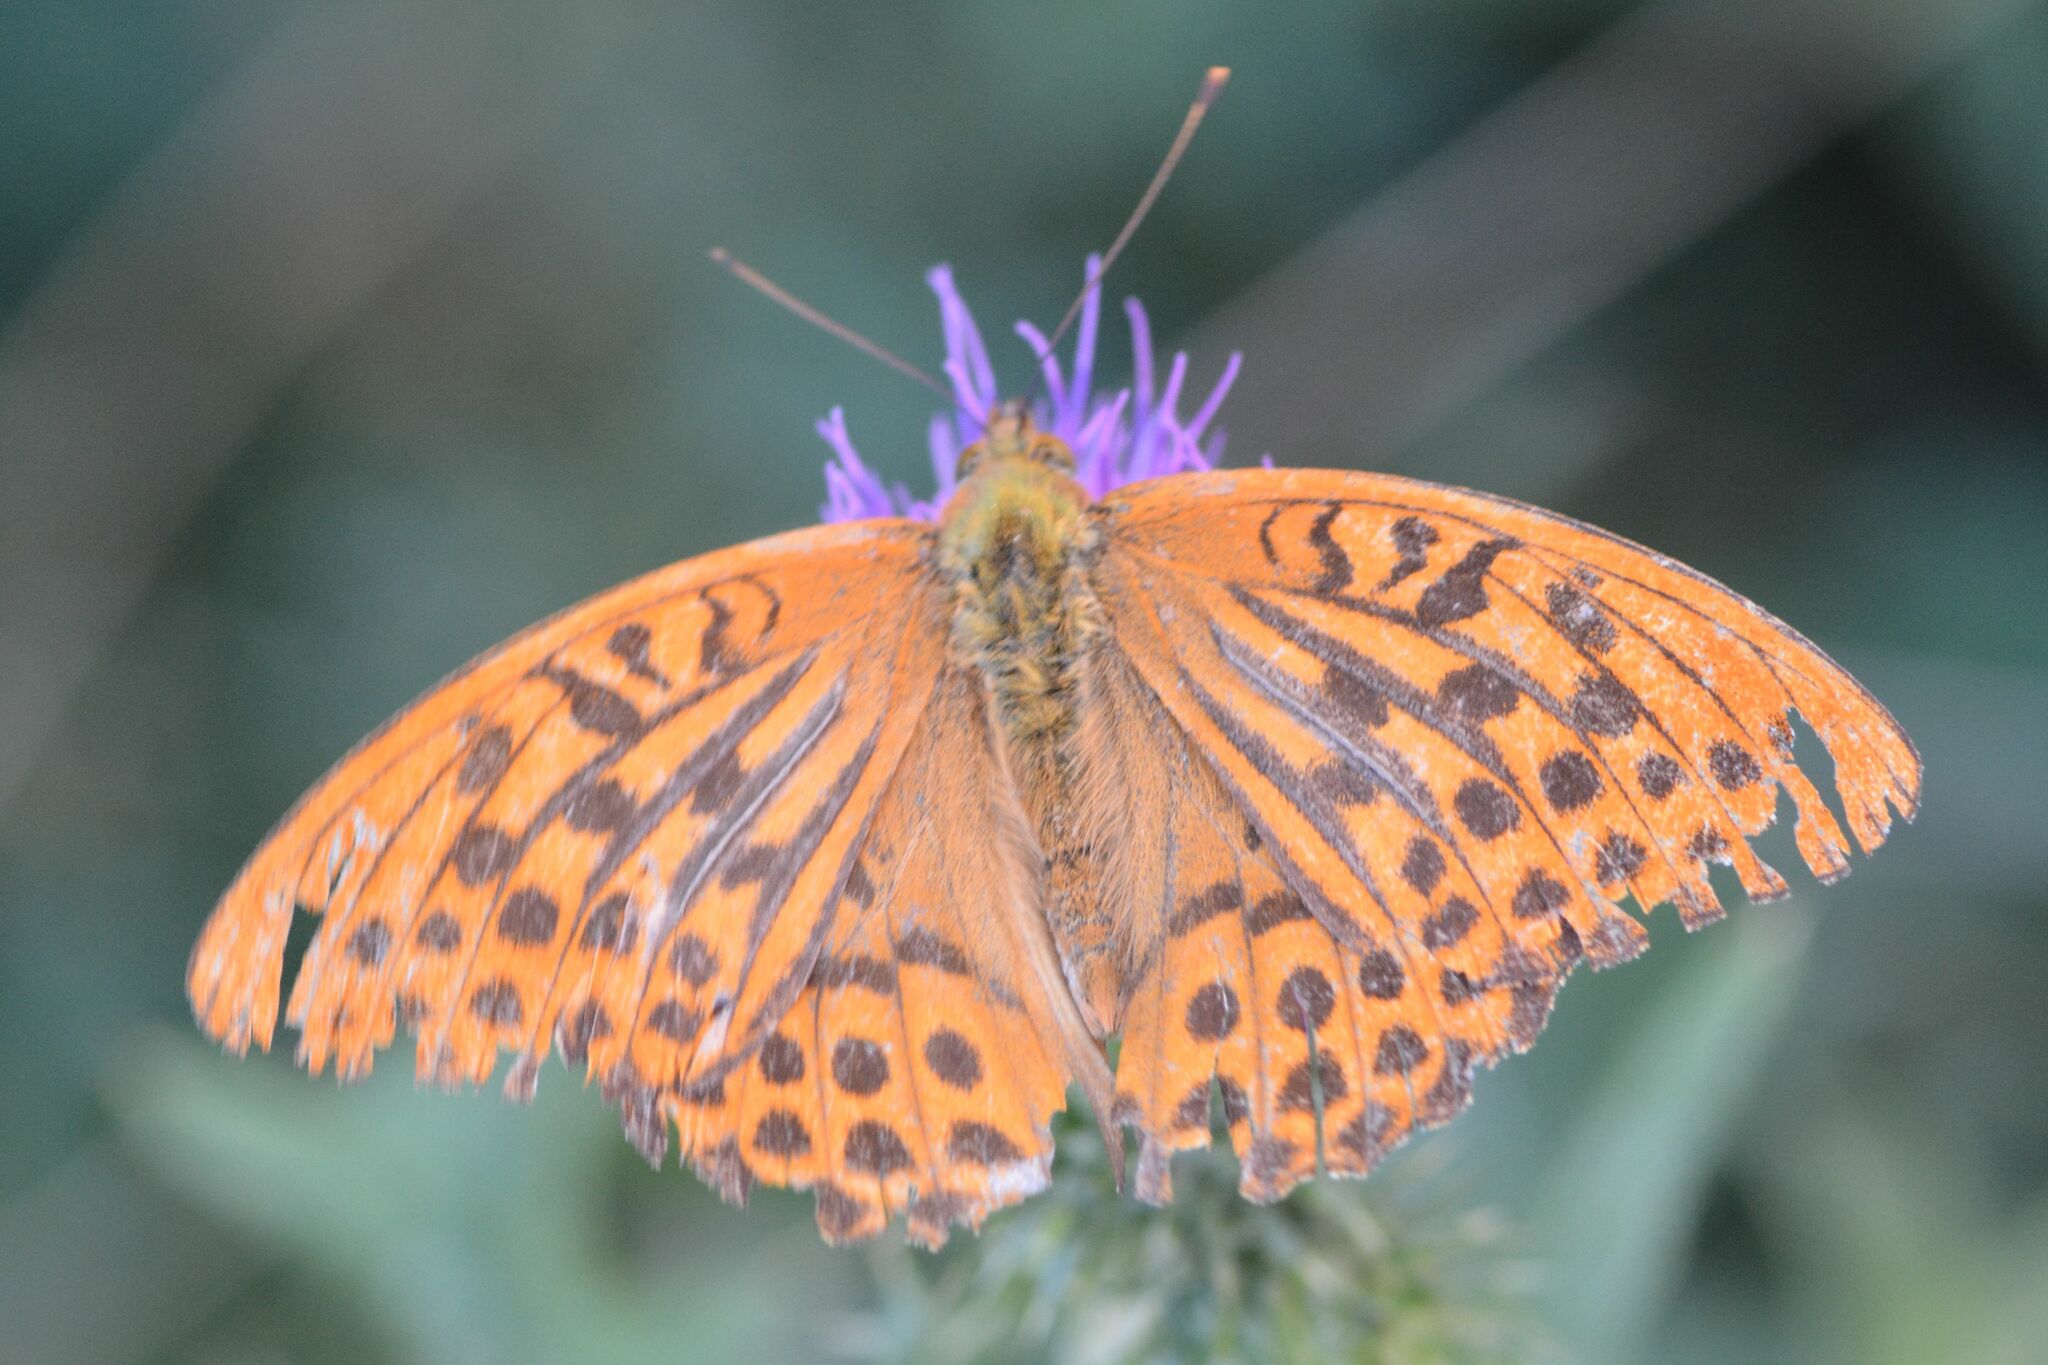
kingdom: Animalia
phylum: Arthropoda
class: Insecta
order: Lepidoptera
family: Nymphalidae
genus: Argynnis
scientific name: Argynnis paphia
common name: Silver-washed fritillary
